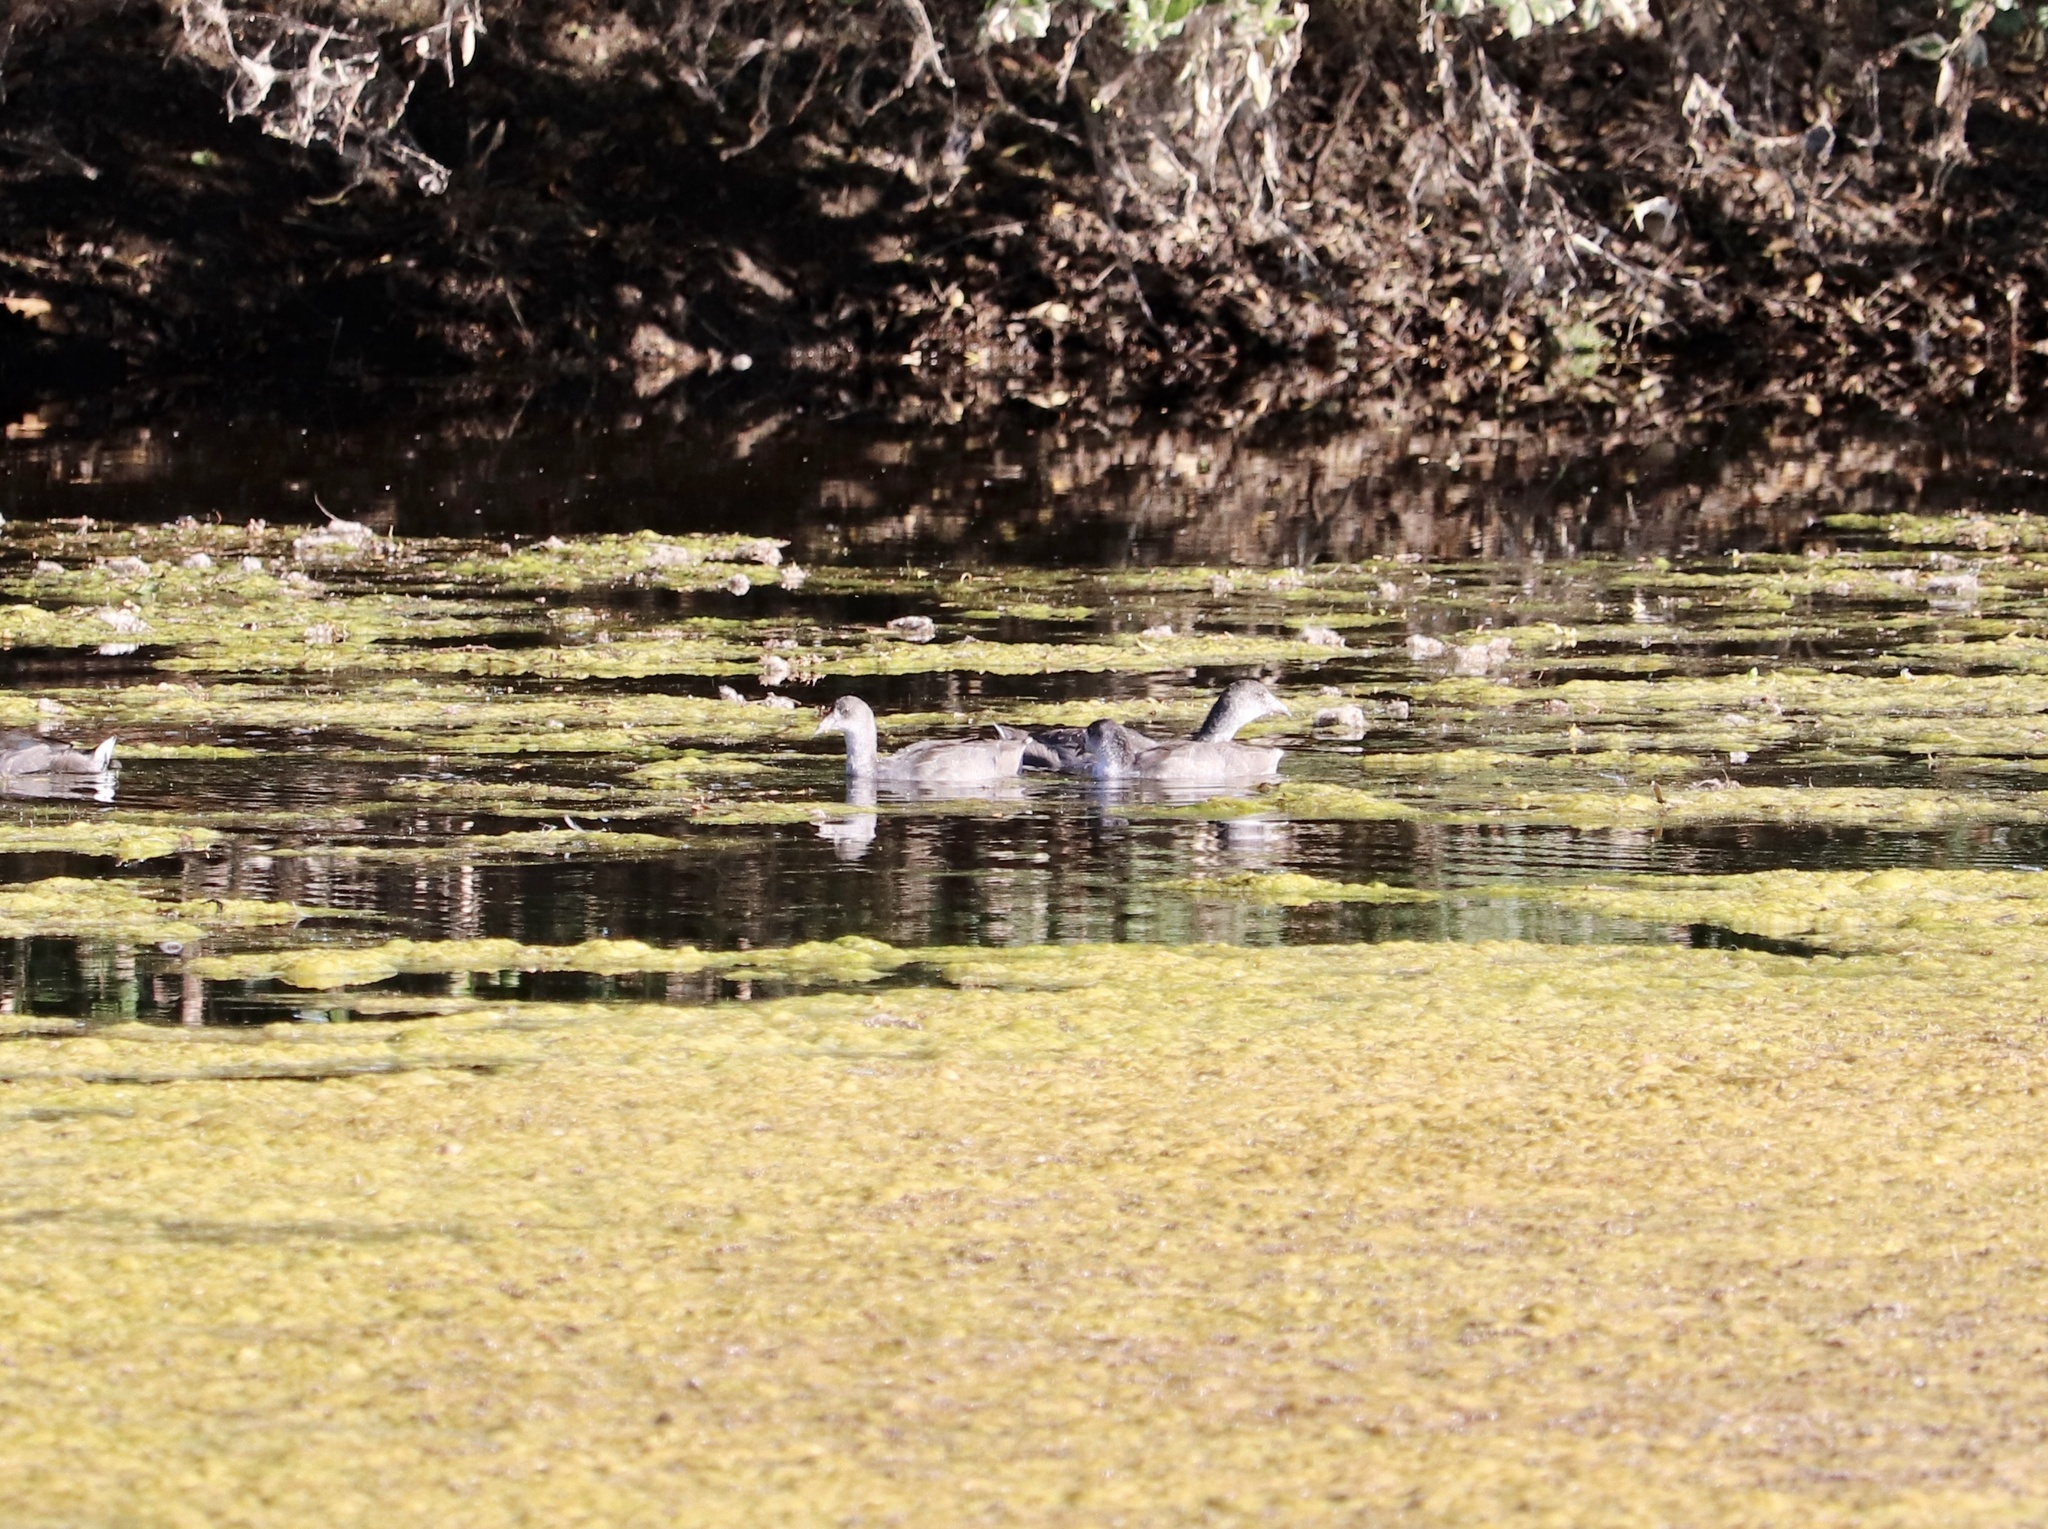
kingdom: Animalia
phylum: Chordata
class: Aves
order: Gruiformes
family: Rallidae
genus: Fulica
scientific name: Fulica americana
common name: American coot
